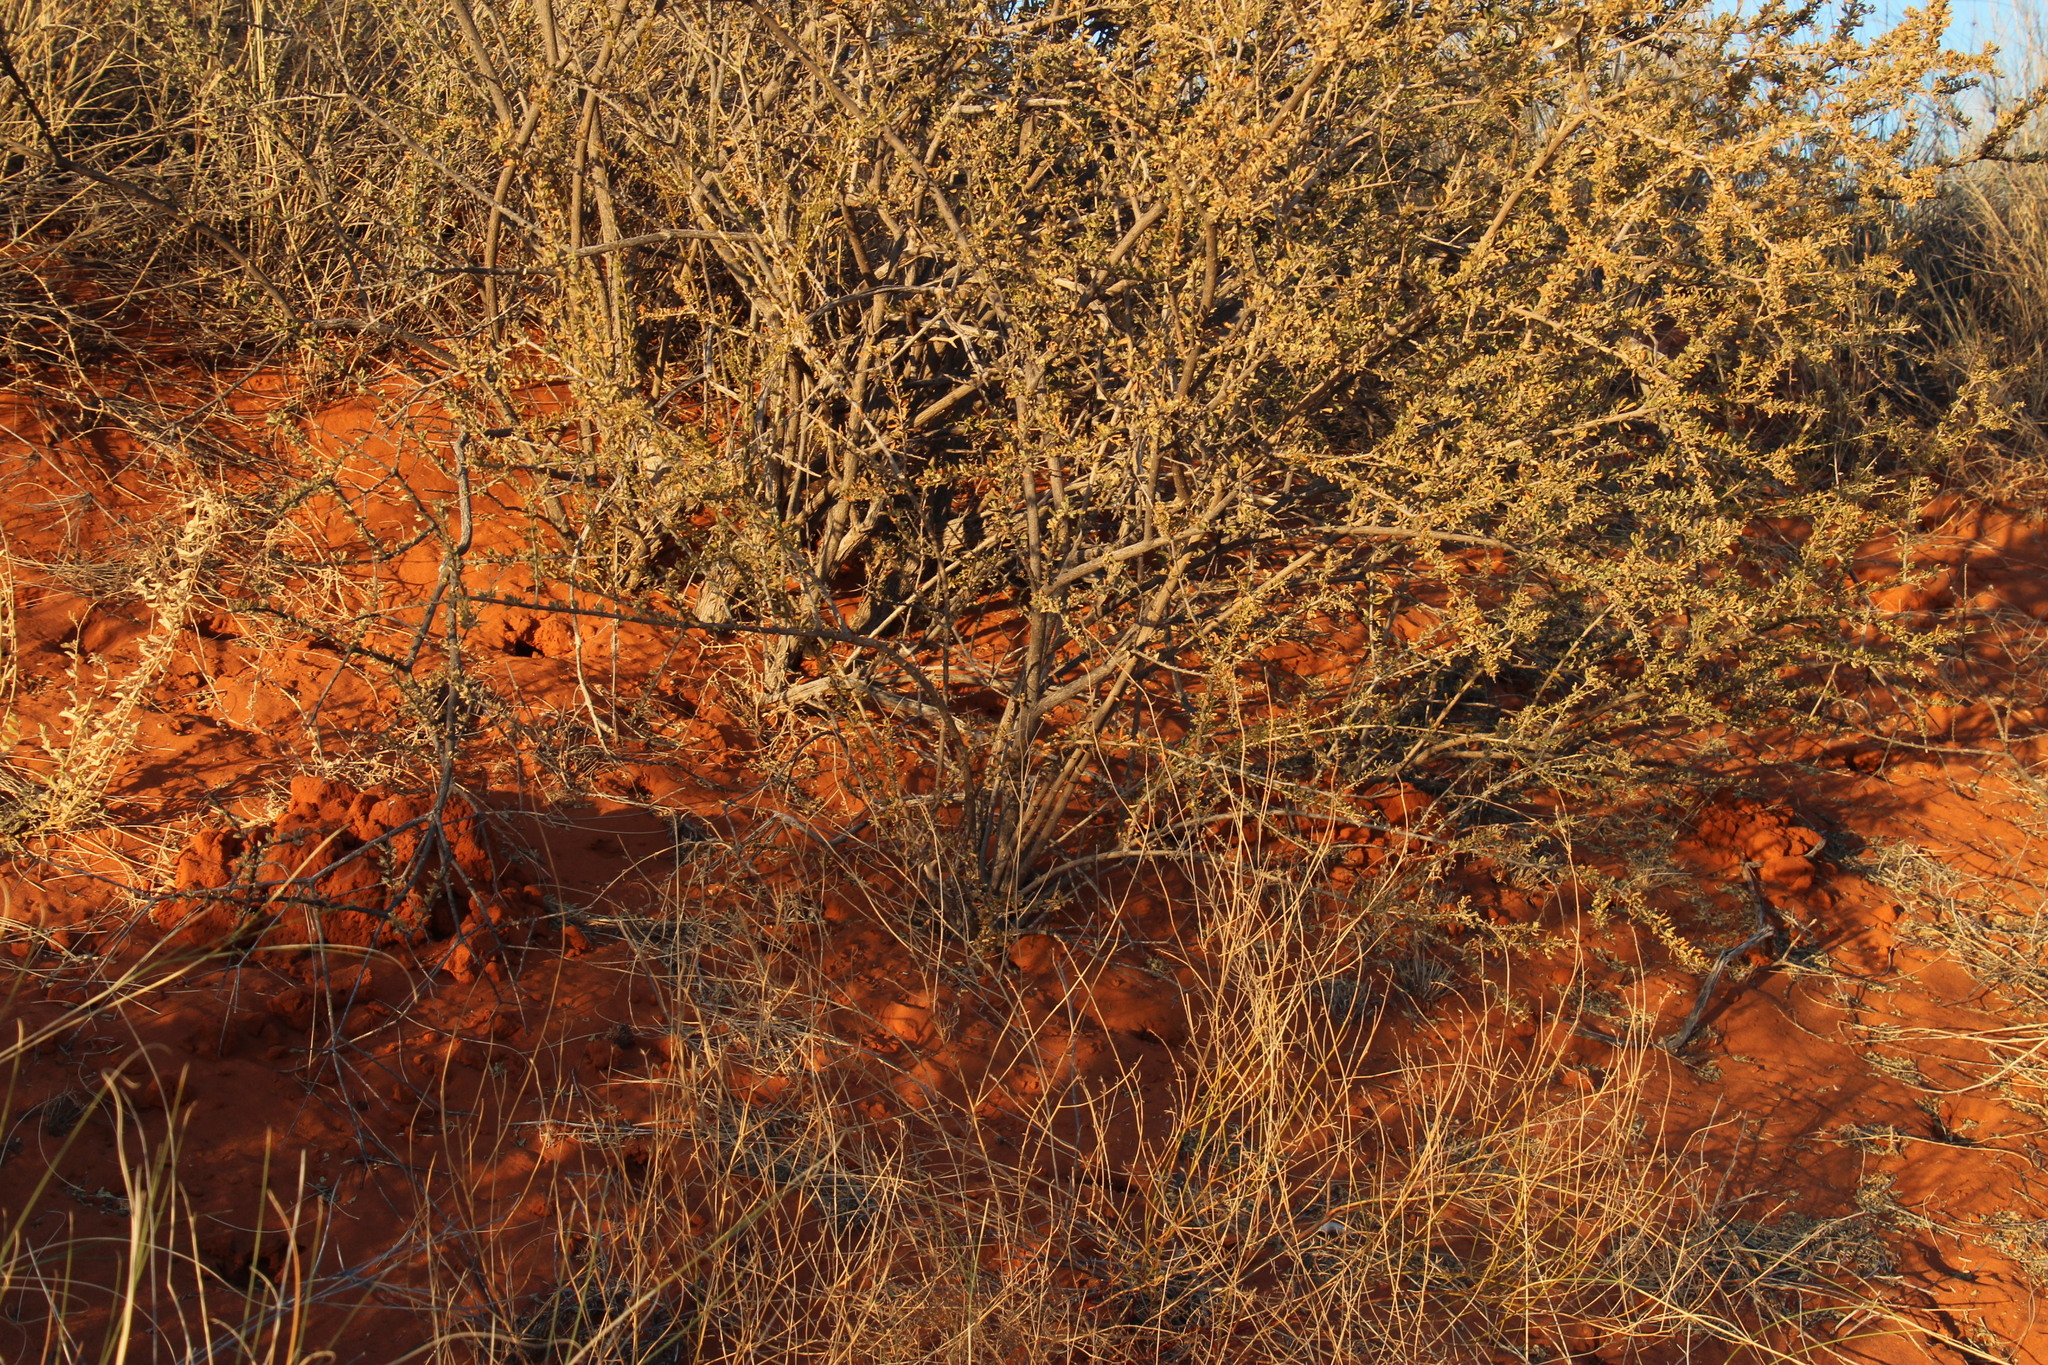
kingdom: Animalia
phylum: Chordata
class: Mammalia
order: Rodentia
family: Bathyergidae
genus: Fukomys
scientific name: Fukomys damarensis
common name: Damara mole rat
